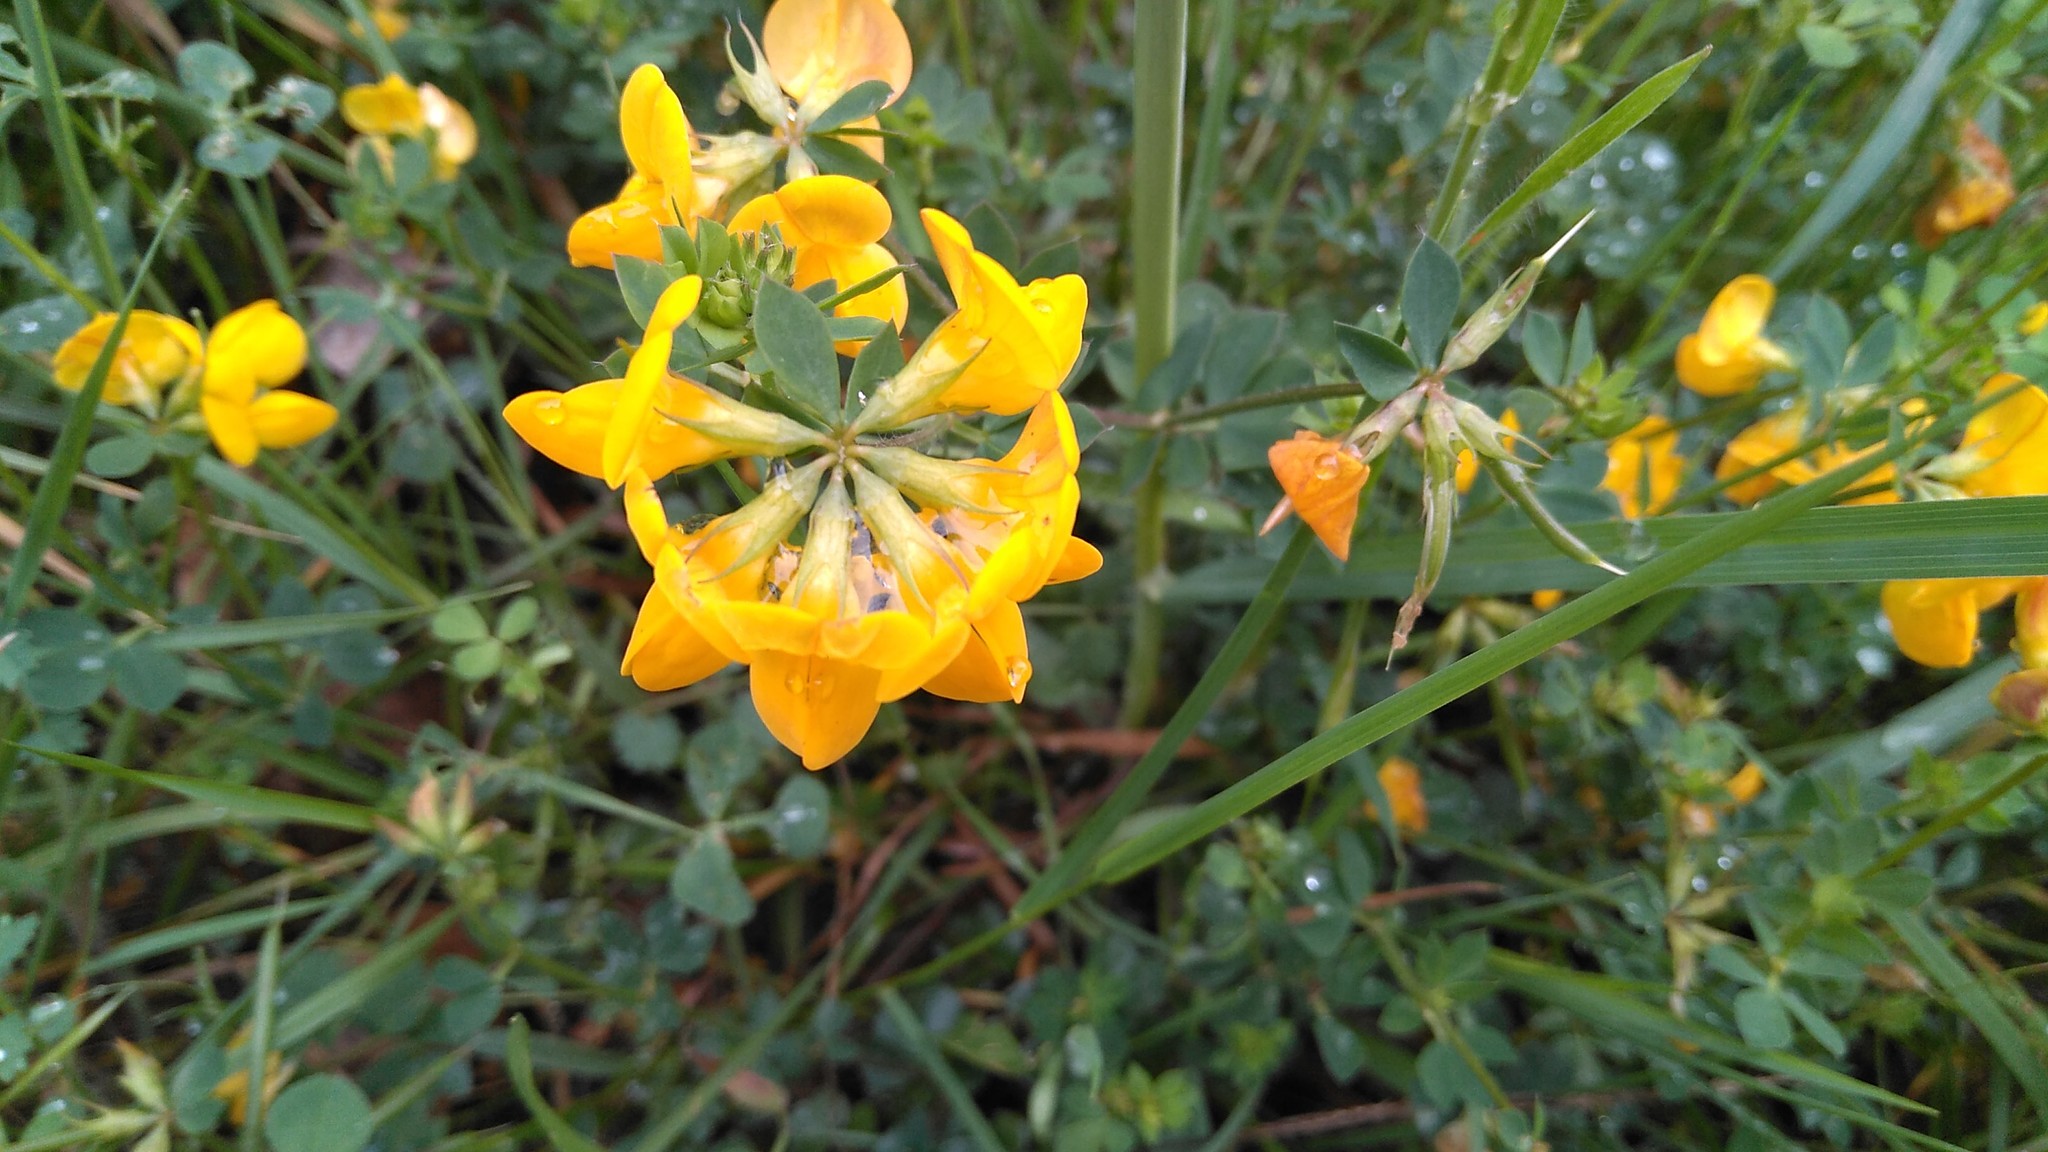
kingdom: Plantae
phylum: Tracheophyta
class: Magnoliopsida
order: Fabales
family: Fabaceae
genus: Lotus
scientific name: Lotus corniculatus
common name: Common bird's-foot-trefoil
